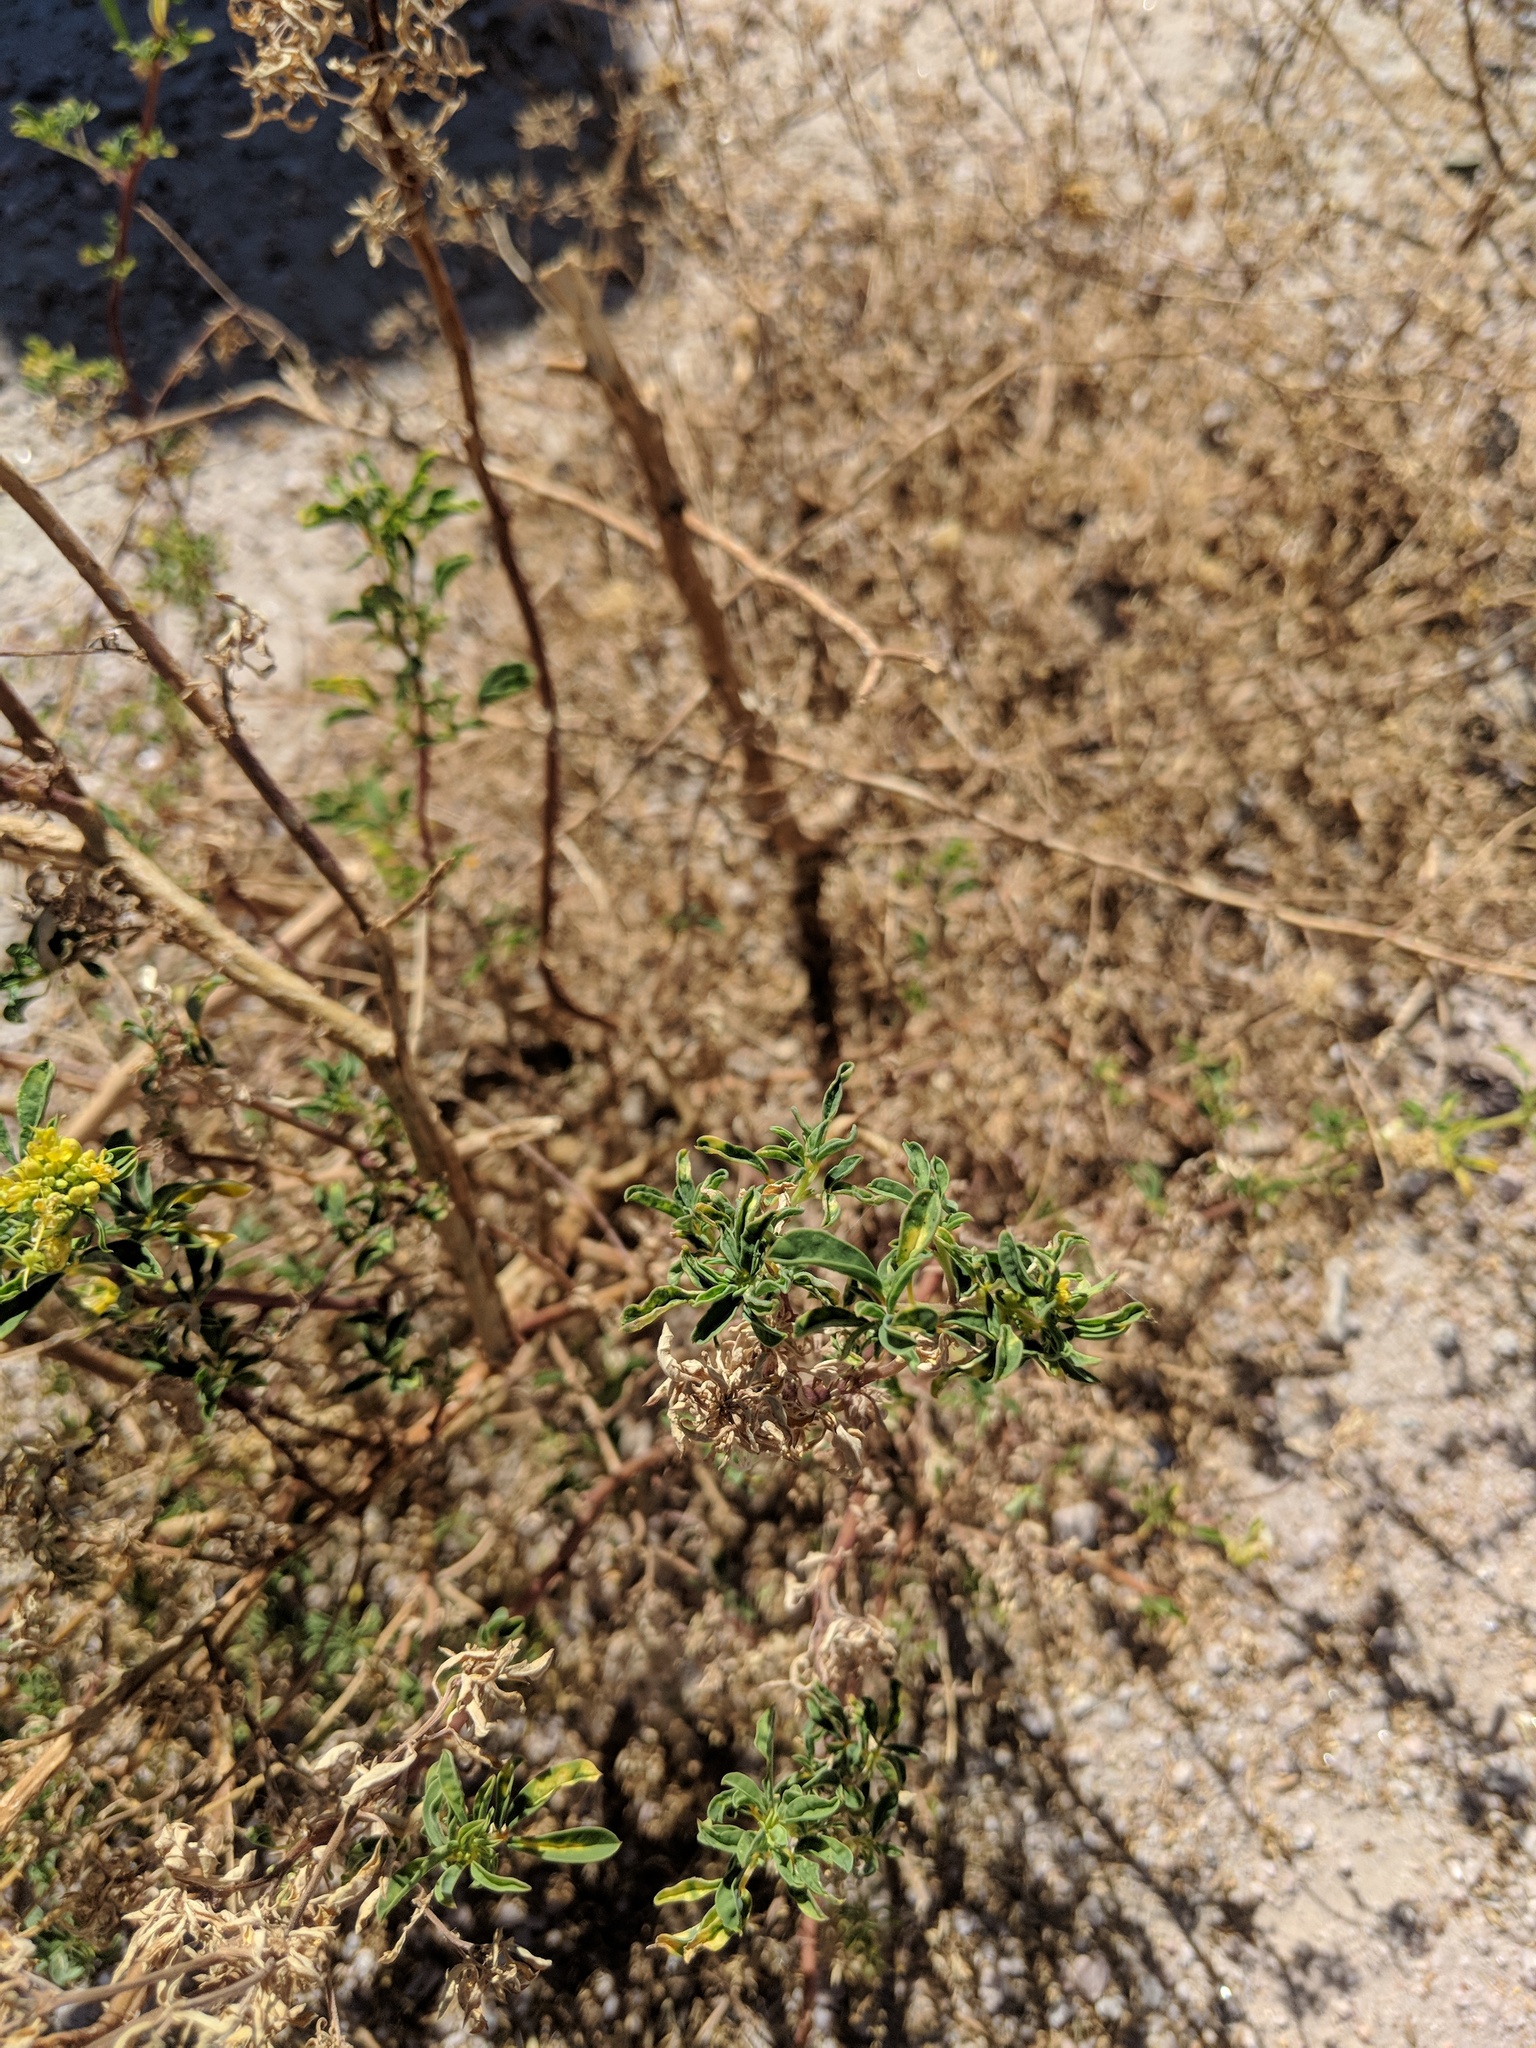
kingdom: Plantae
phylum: Tracheophyta
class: Magnoliopsida
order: Brassicales
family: Cleomaceae
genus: Cleomella
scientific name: Cleomella refracta
